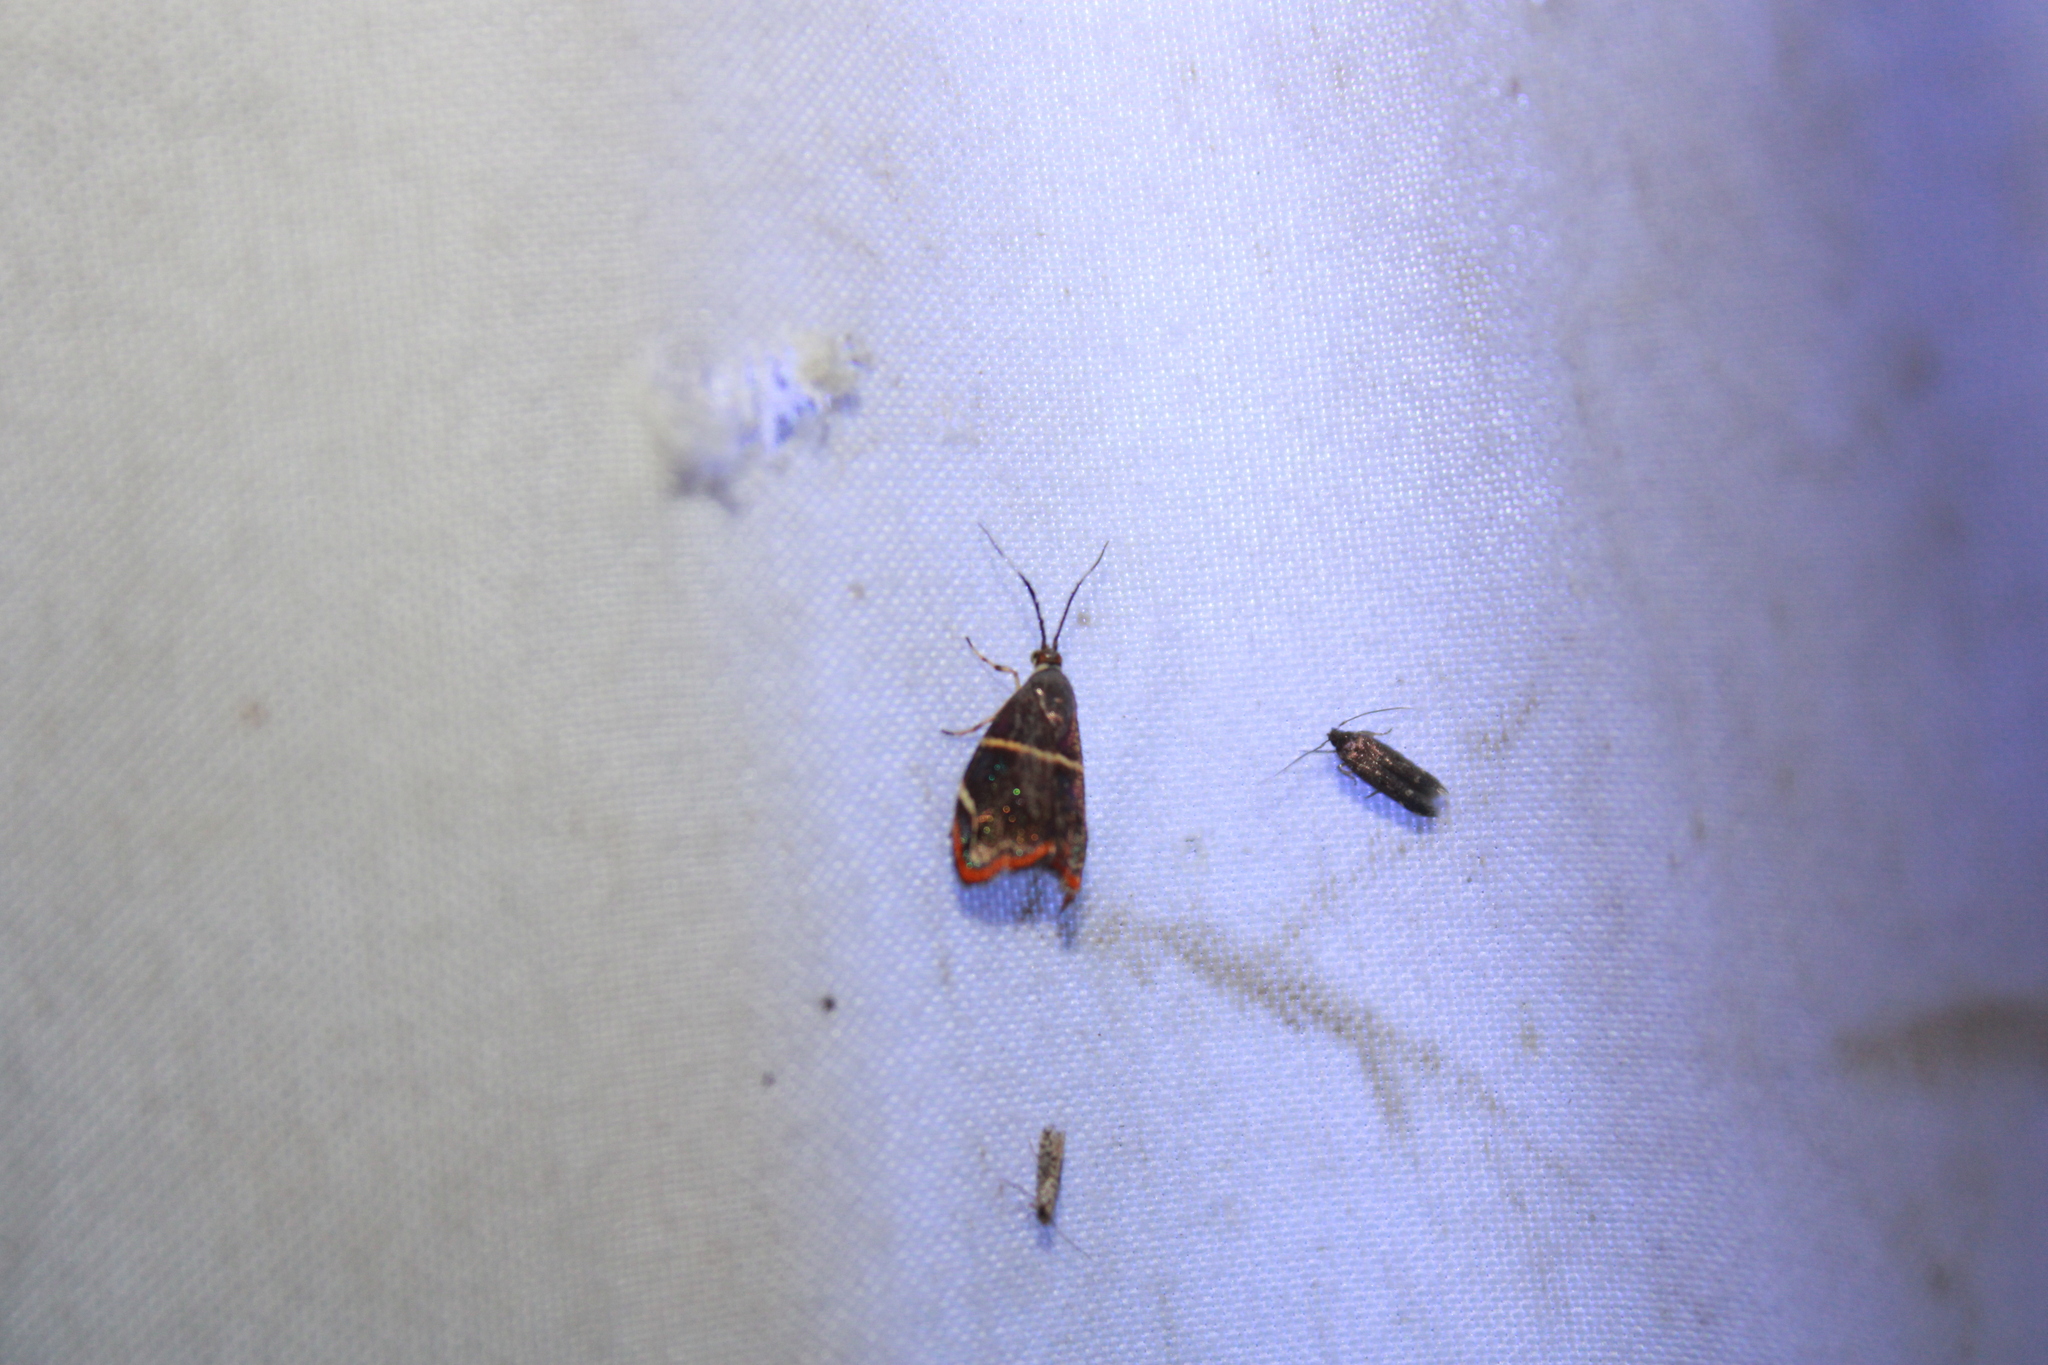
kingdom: Animalia
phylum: Arthropoda
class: Insecta
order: Lepidoptera
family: Choreutidae
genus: Hemerophila
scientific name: Hemerophila
